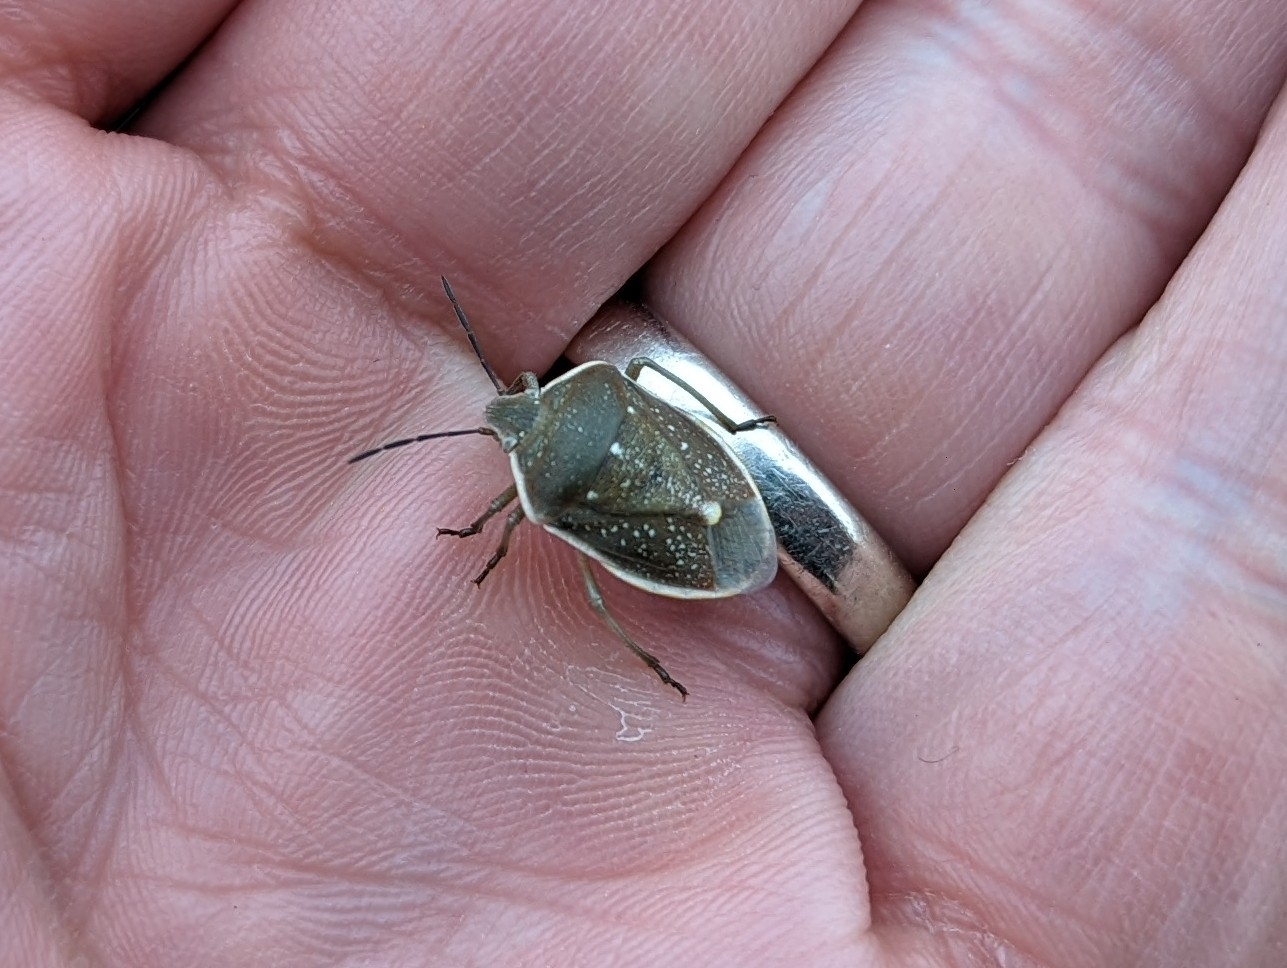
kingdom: Animalia
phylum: Arthropoda
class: Insecta
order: Hemiptera
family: Pentatomidae
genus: Chlorochroa
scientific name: Chlorochroa sayi
